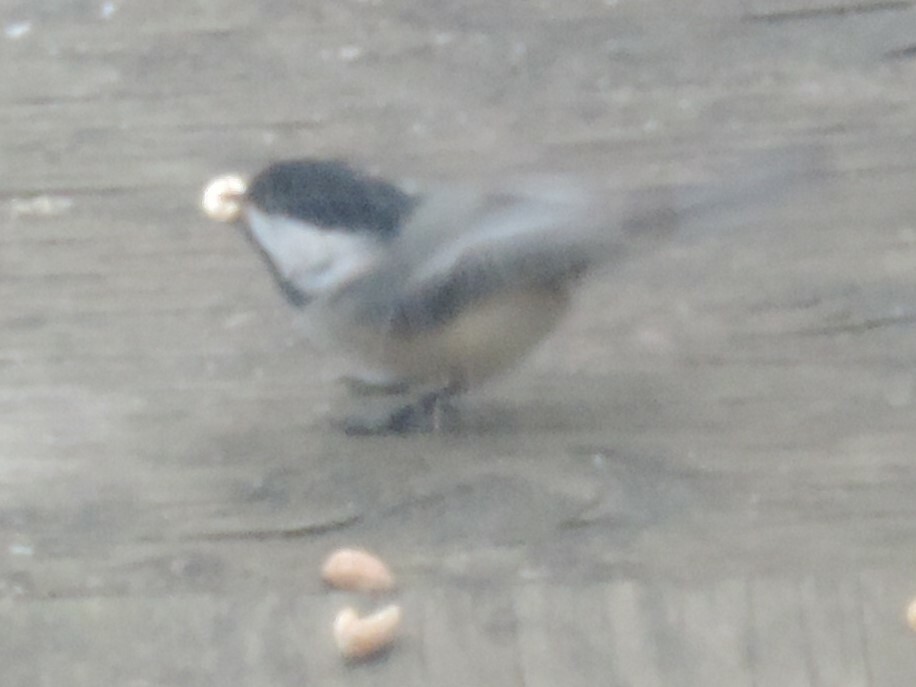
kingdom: Animalia
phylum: Chordata
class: Aves
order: Passeriformes
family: Paridae
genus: Poecile
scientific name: Poecile atricapillus
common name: Black-capped chickadee
